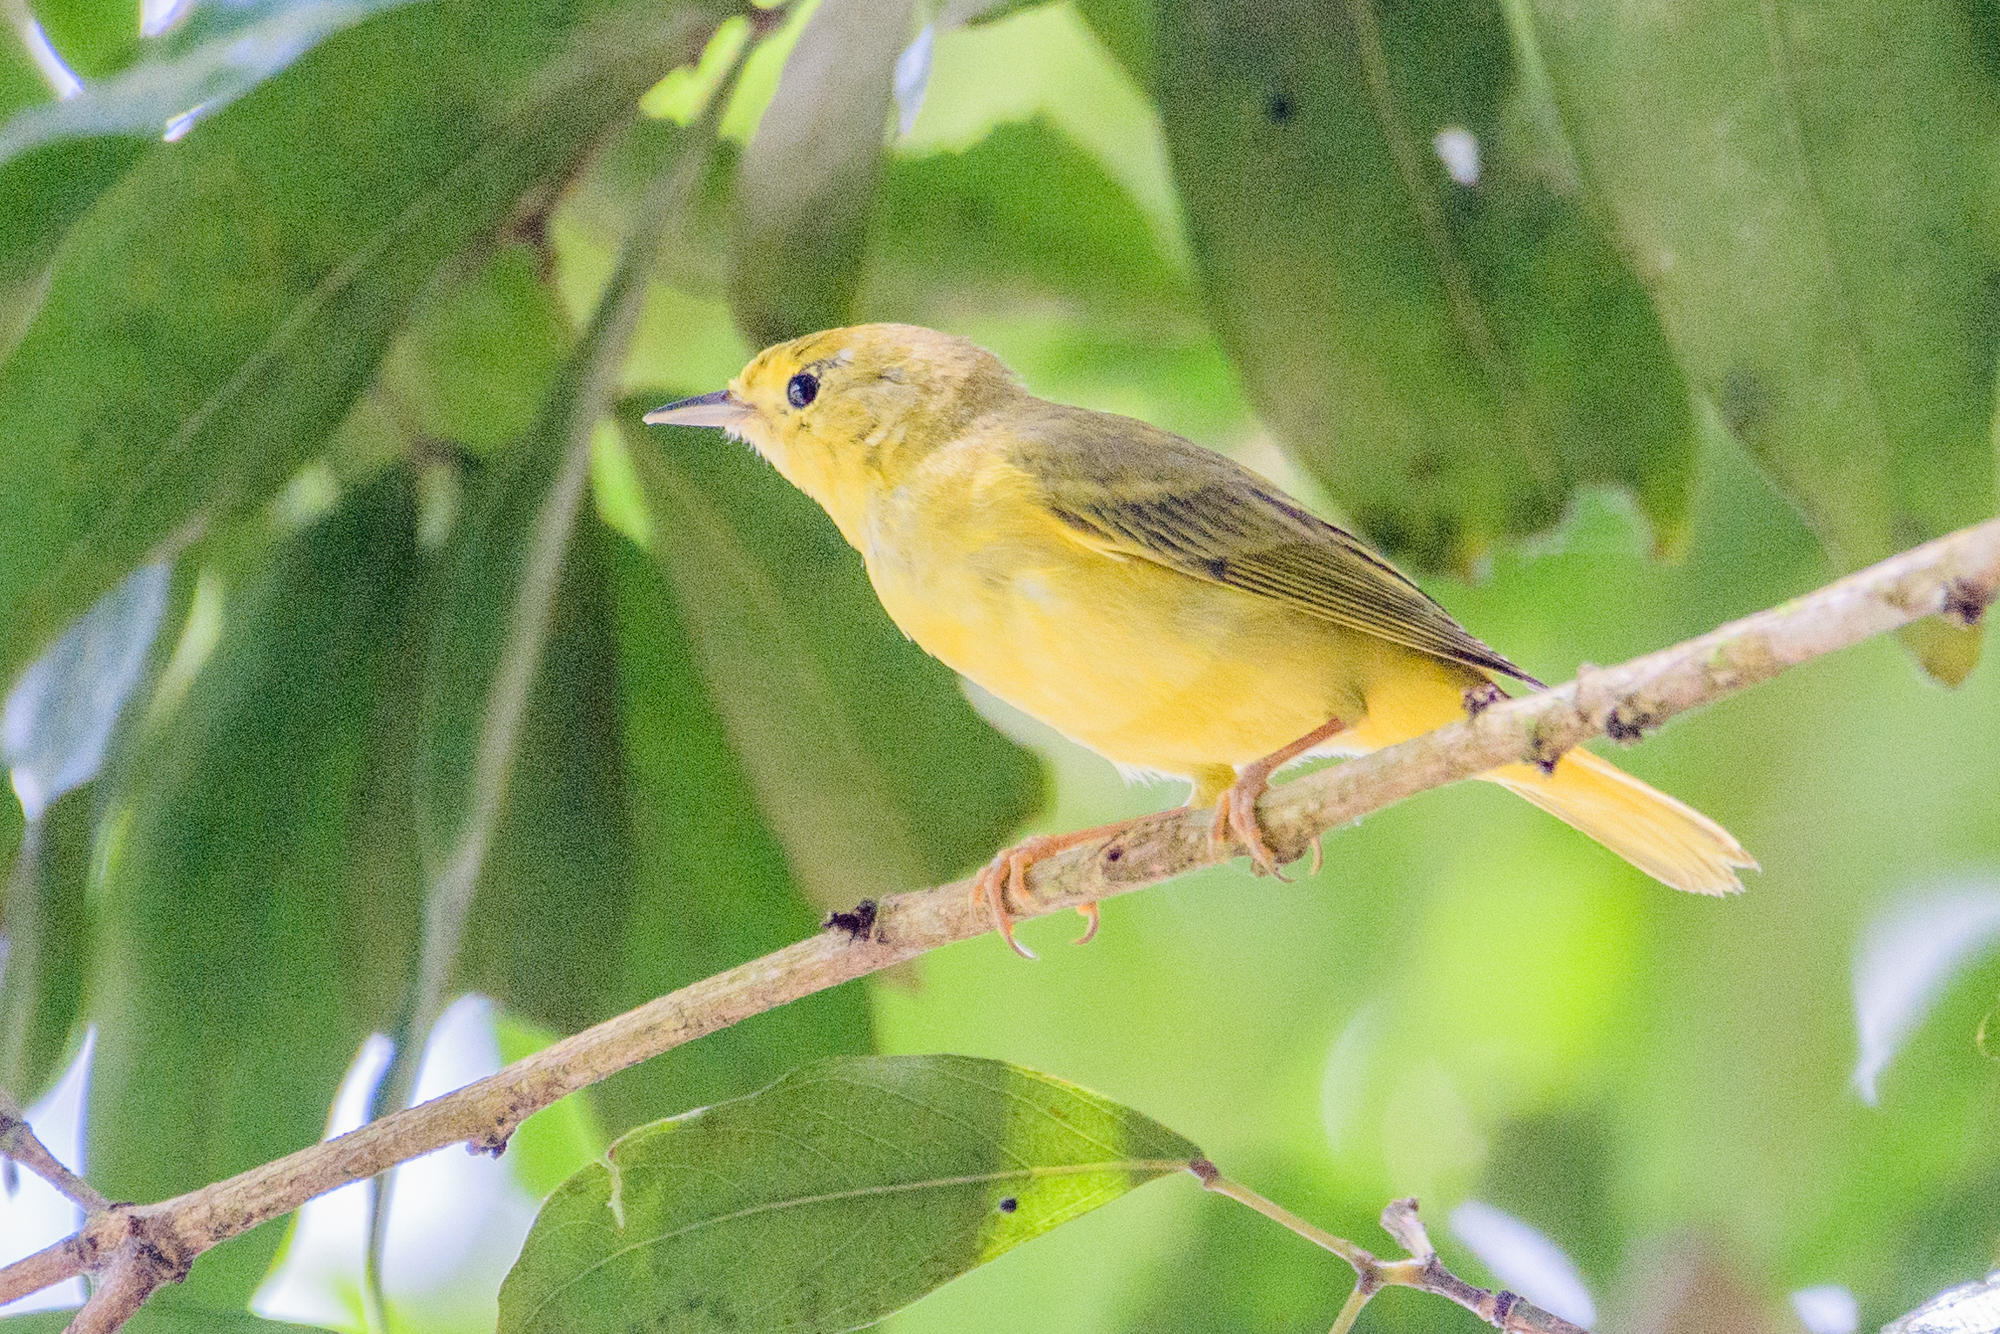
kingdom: Animalia
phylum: Chordata
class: Aves
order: Passeriformes
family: Parulidae
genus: Setophaga
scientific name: Setophaga petechia
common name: Yellow warbler
